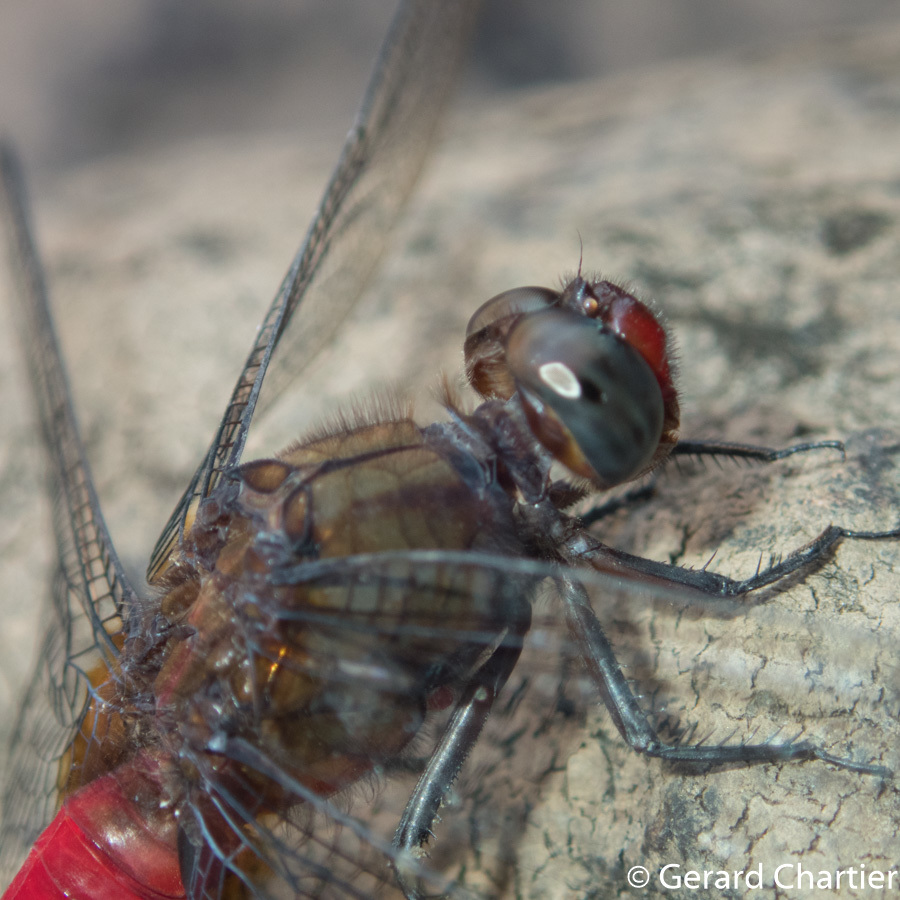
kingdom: Animalia
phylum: Arthropoda
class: Insecta
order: Odonata
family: Libellulidae
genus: Orthetrum
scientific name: Orthetrum chrysis
